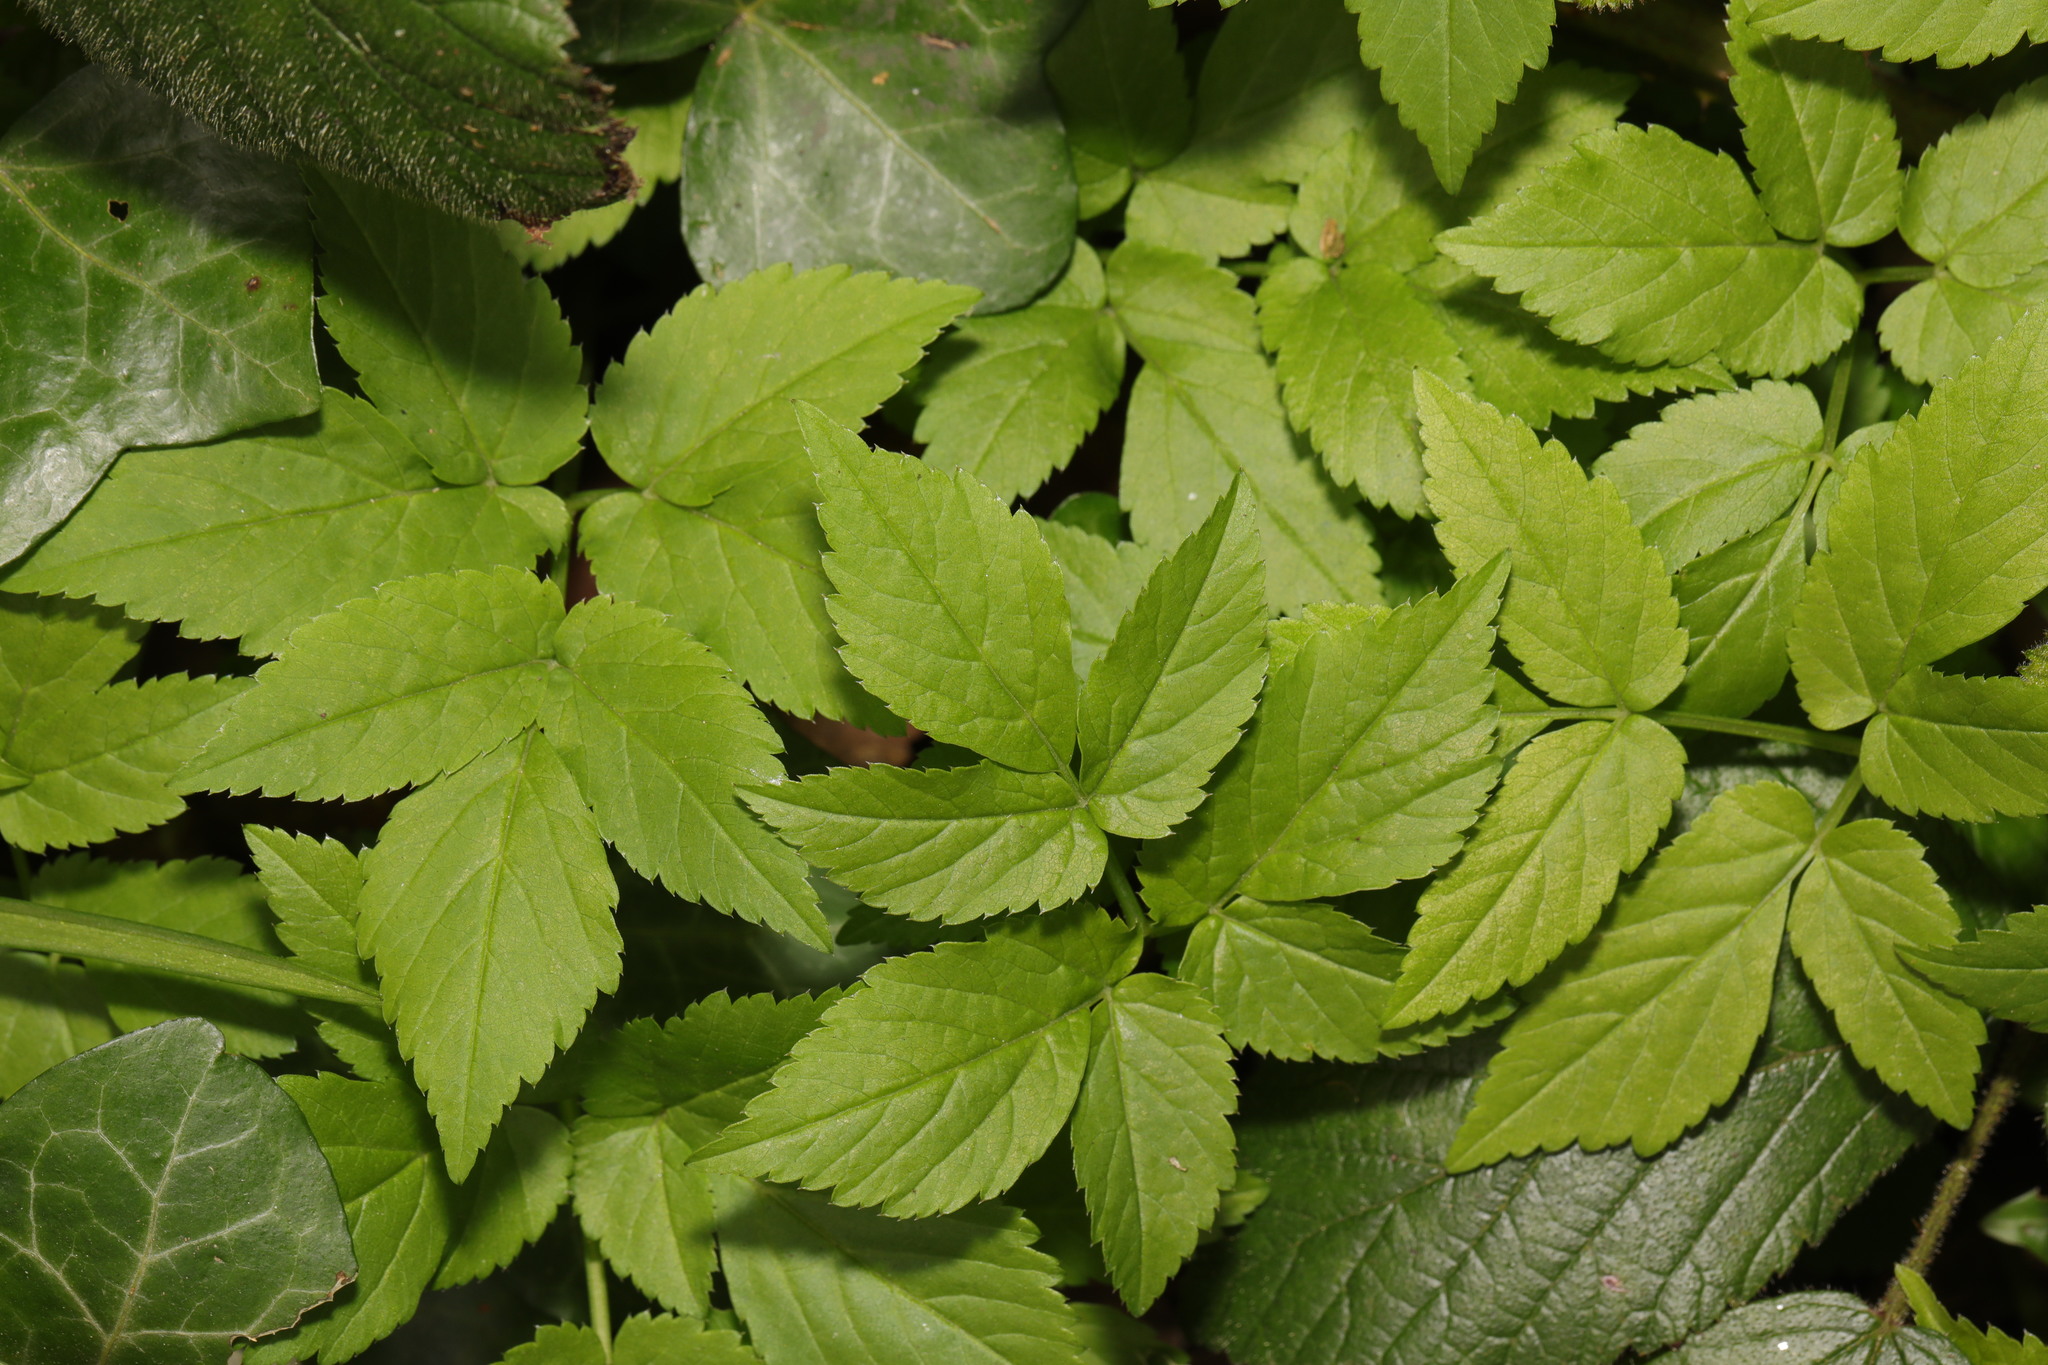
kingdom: Plantae
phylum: Tracheophyta
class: Magnoliopsida
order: Apiales
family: Apiaceae
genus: Aegopodium
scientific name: Aegopodium podagraria
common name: Ground-elder
